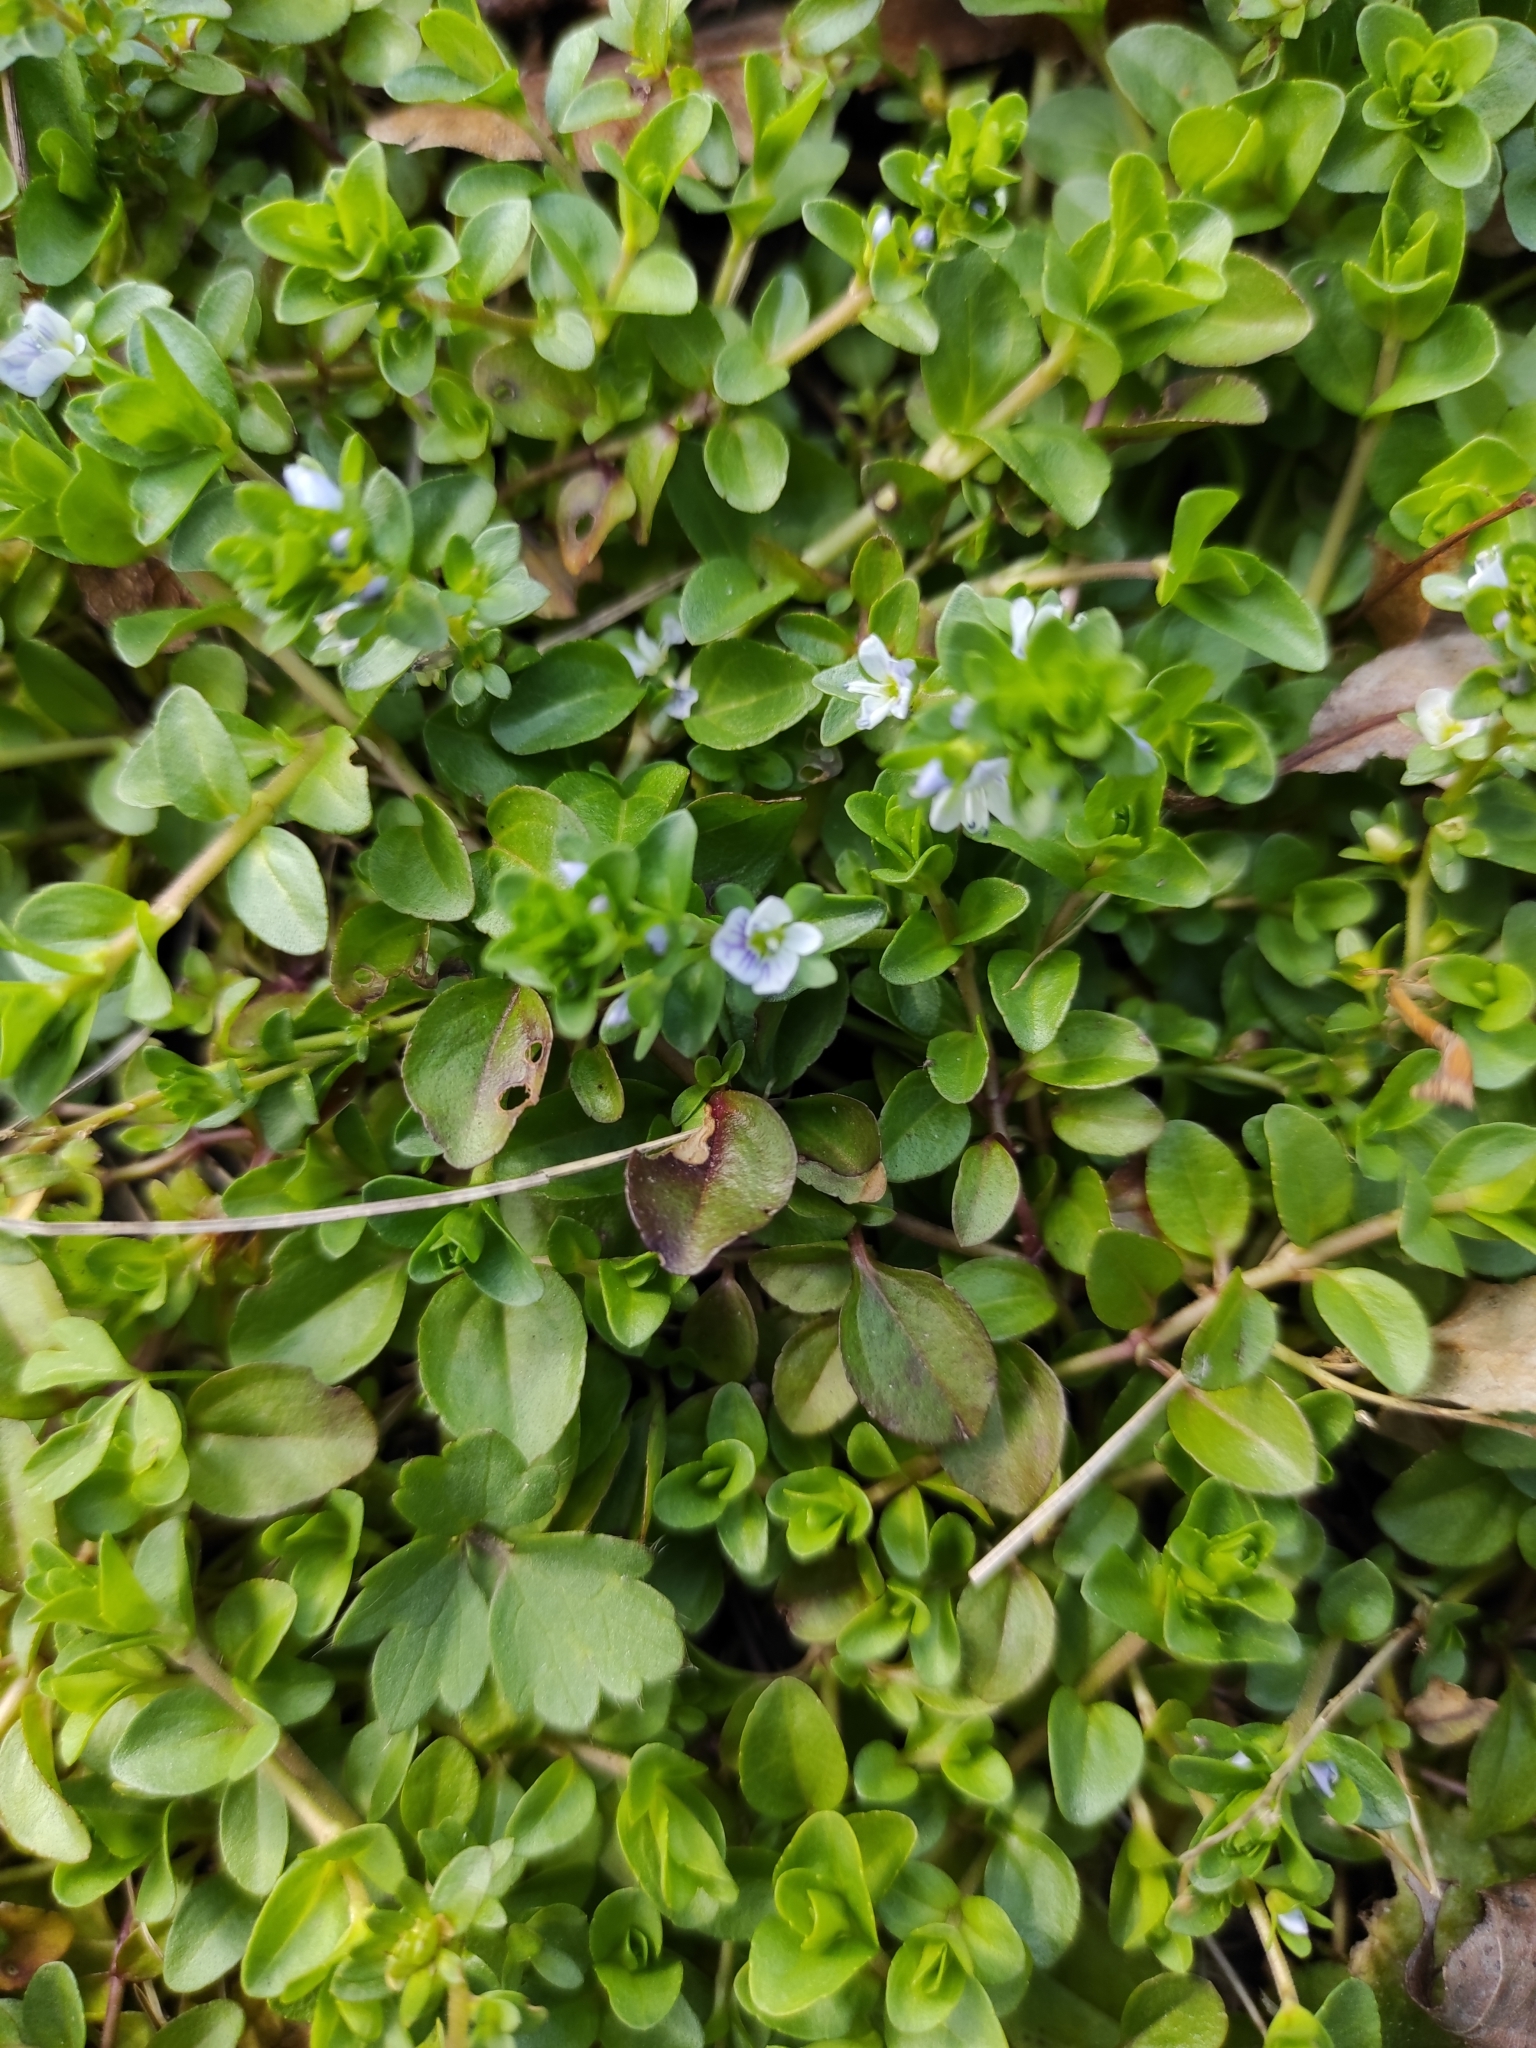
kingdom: Plantae
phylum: Tracheophyta
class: Magnoliopsida
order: Lamiales
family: Plantaginaceae
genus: Veronica
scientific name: Veronica serpyllifolia
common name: Thyme-leaved speedwell
